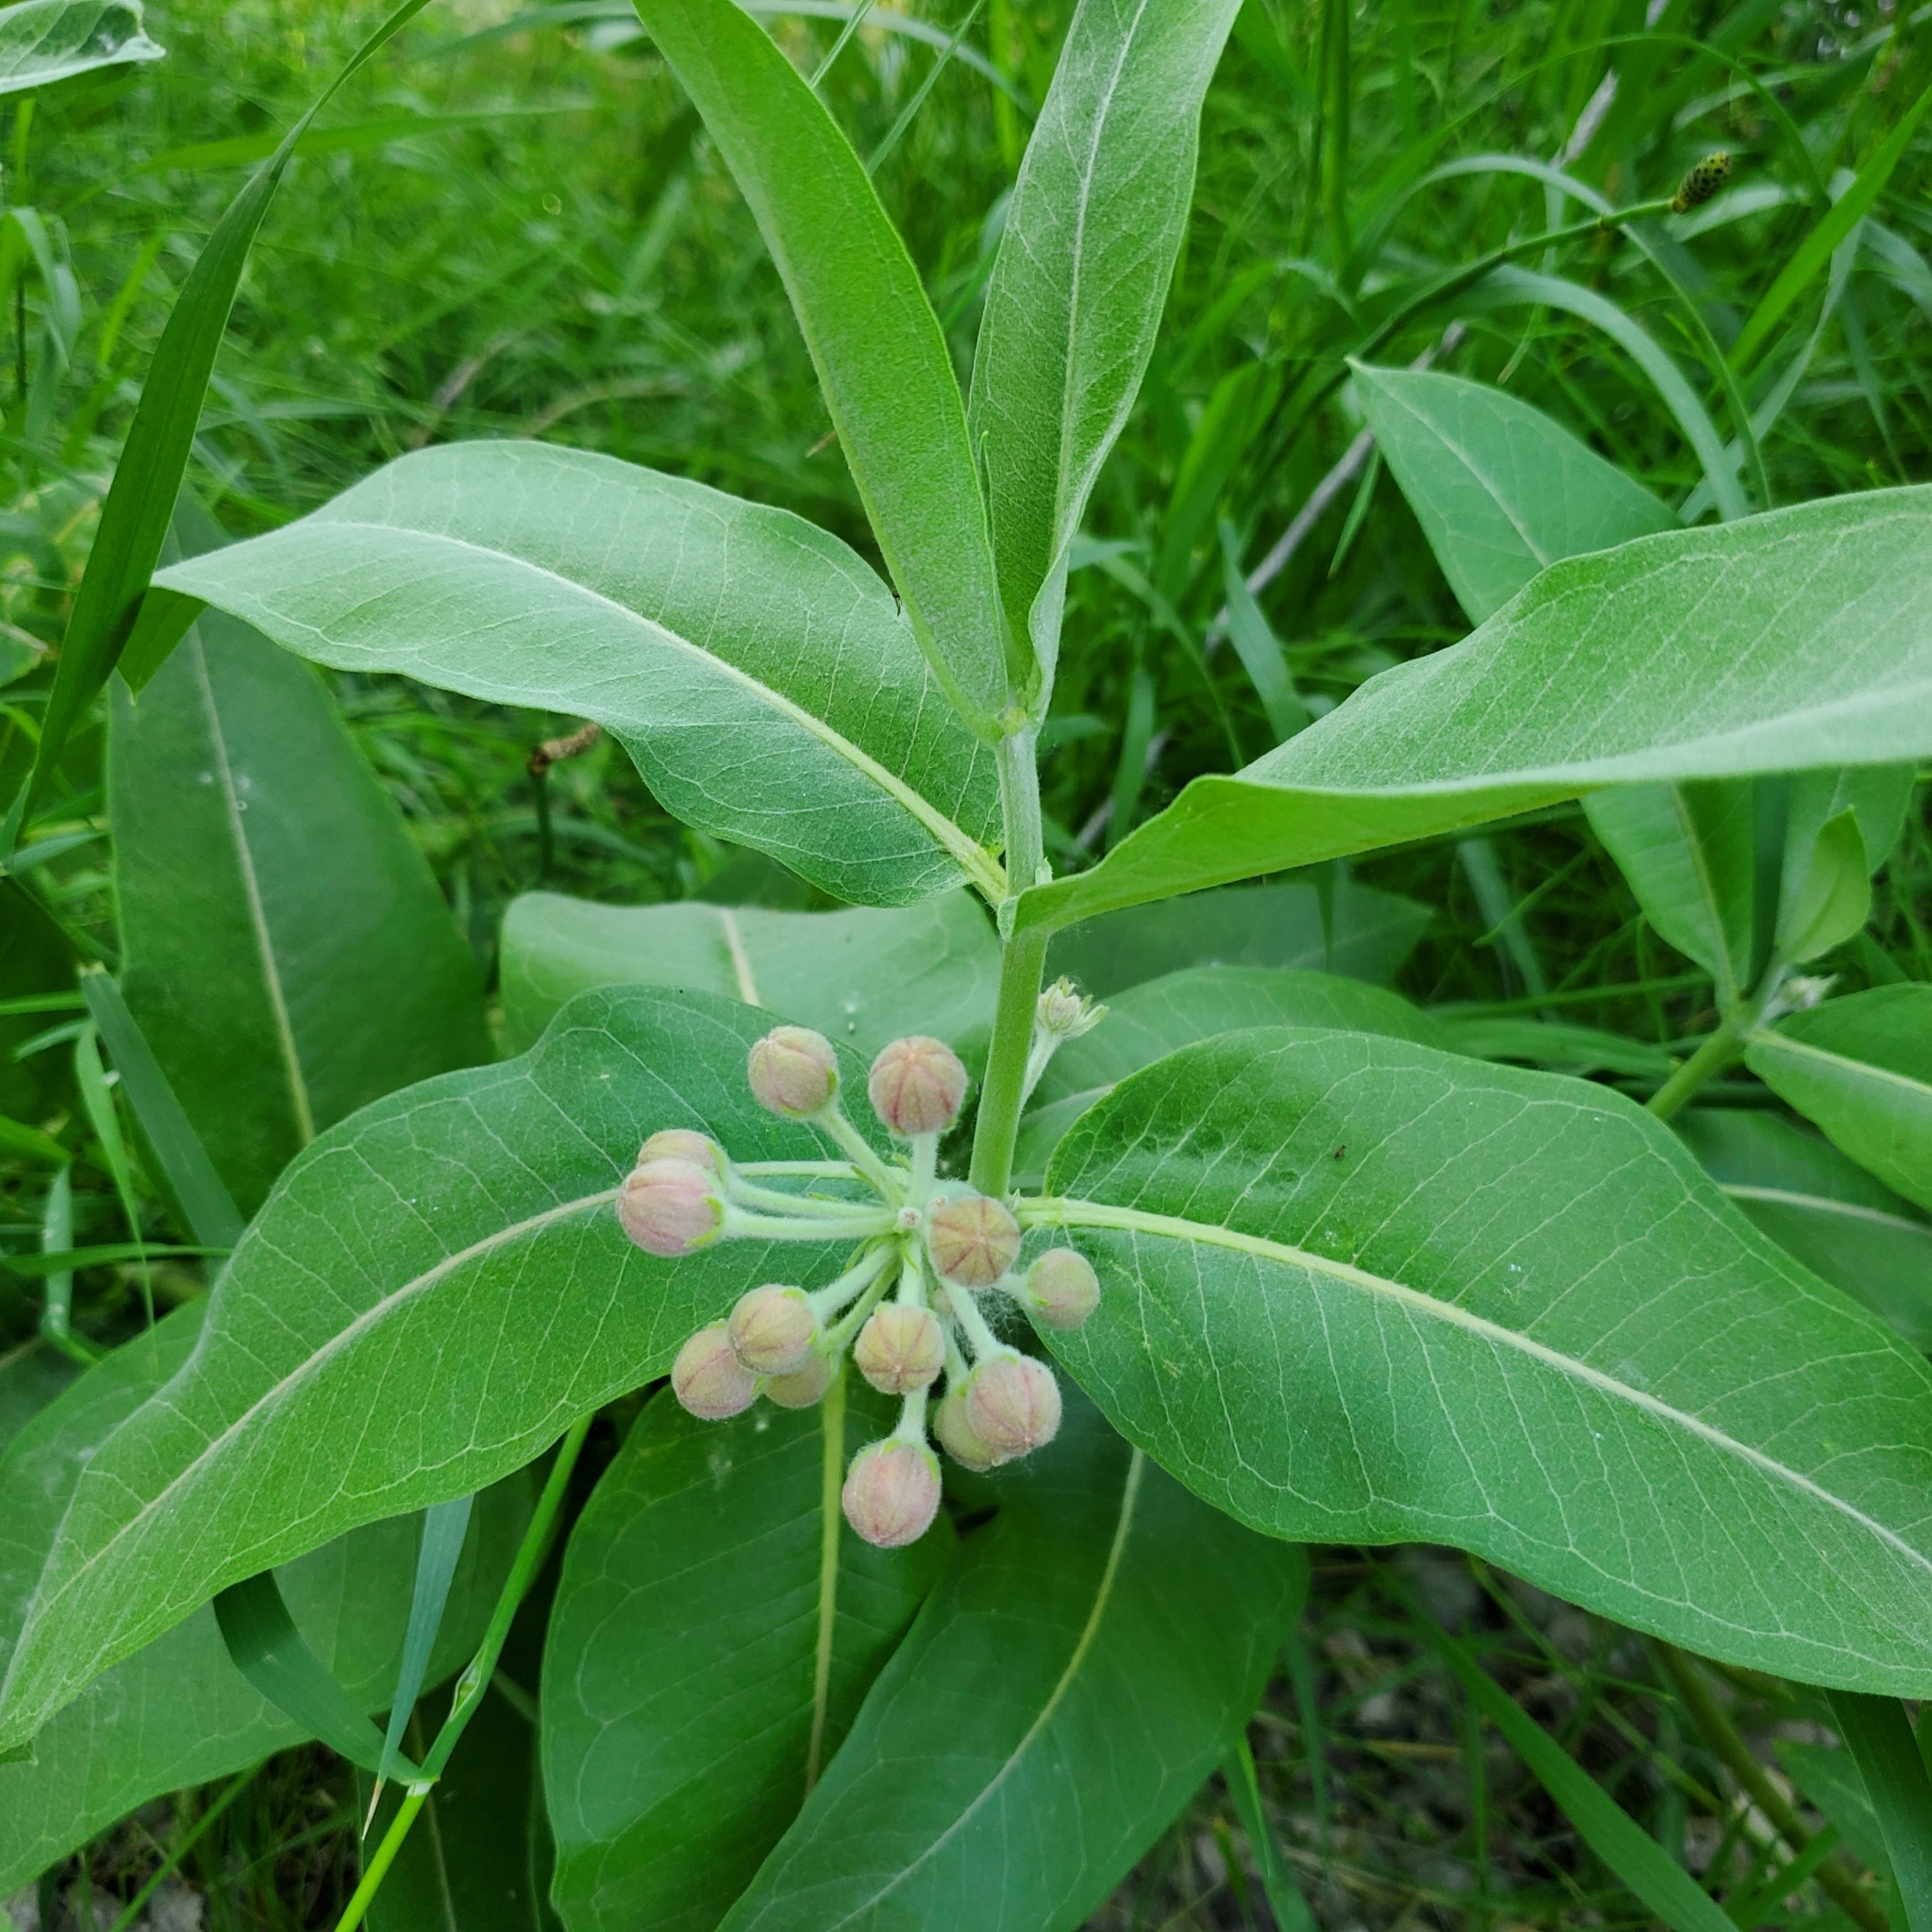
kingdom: Plantae
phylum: Tracheophyta
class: Magnoliopsida
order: Gentianales
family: Apocynaceae
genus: Asclepias
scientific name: Asclepias speciosa
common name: Showy milkweed
